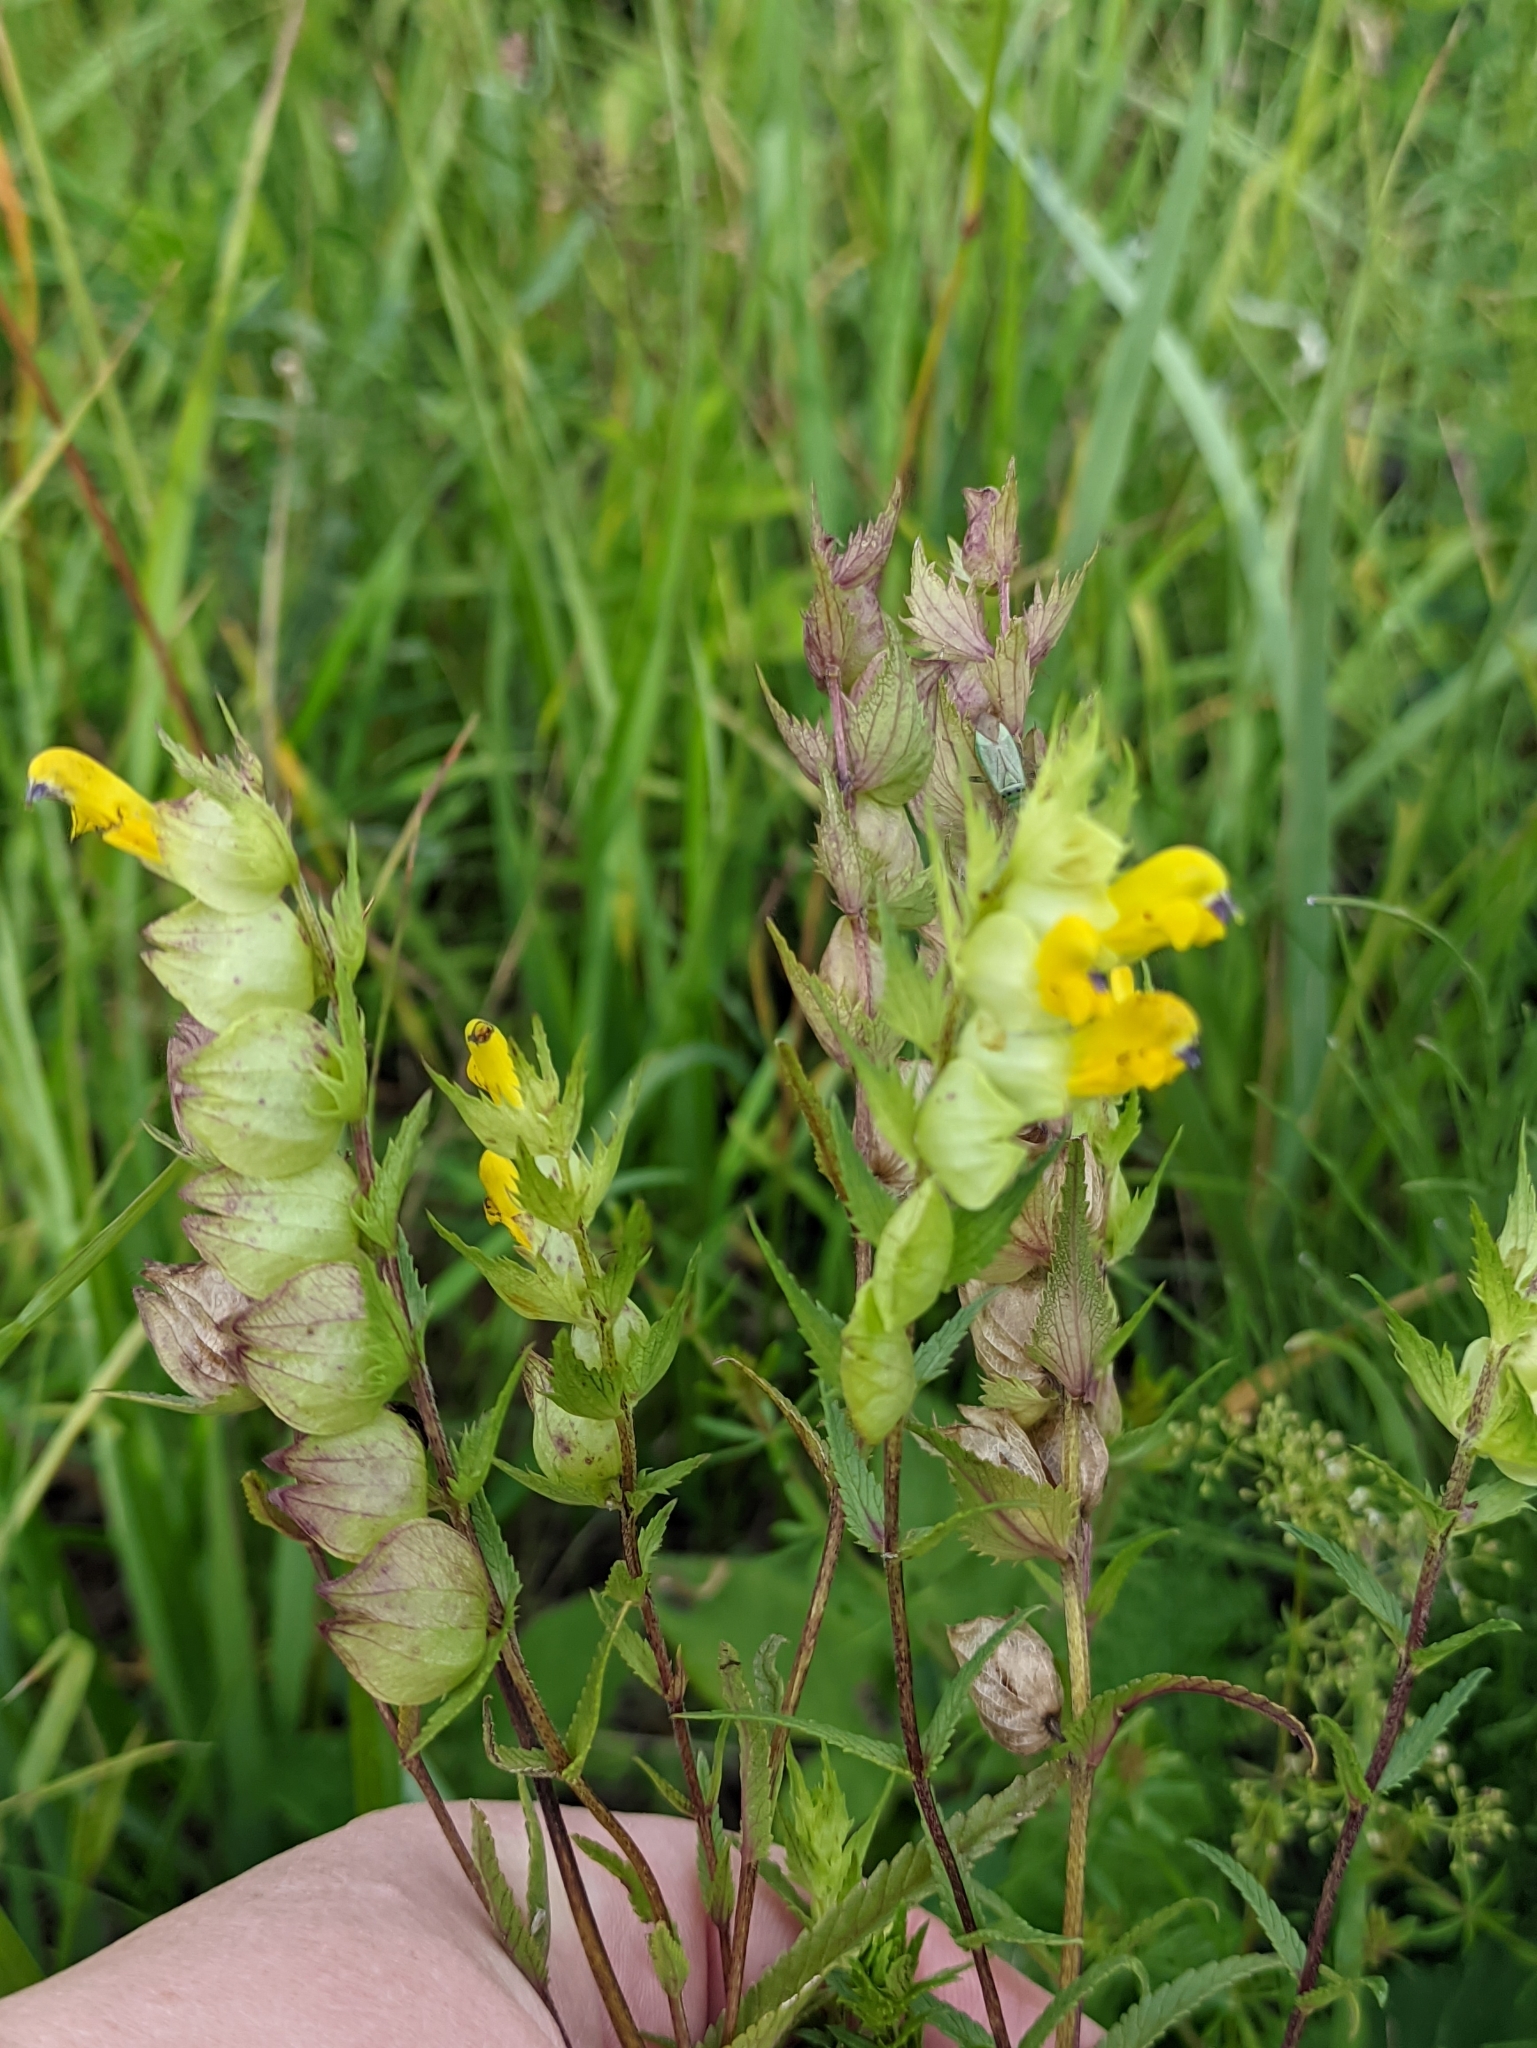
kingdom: Plantae
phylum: Tracheophyta
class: Magnoliopsida
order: Lamiales
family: Orobanchaceae
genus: Rhinanthus
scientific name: Rhinanthus serotinus
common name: Late-flowering yellow rattle
